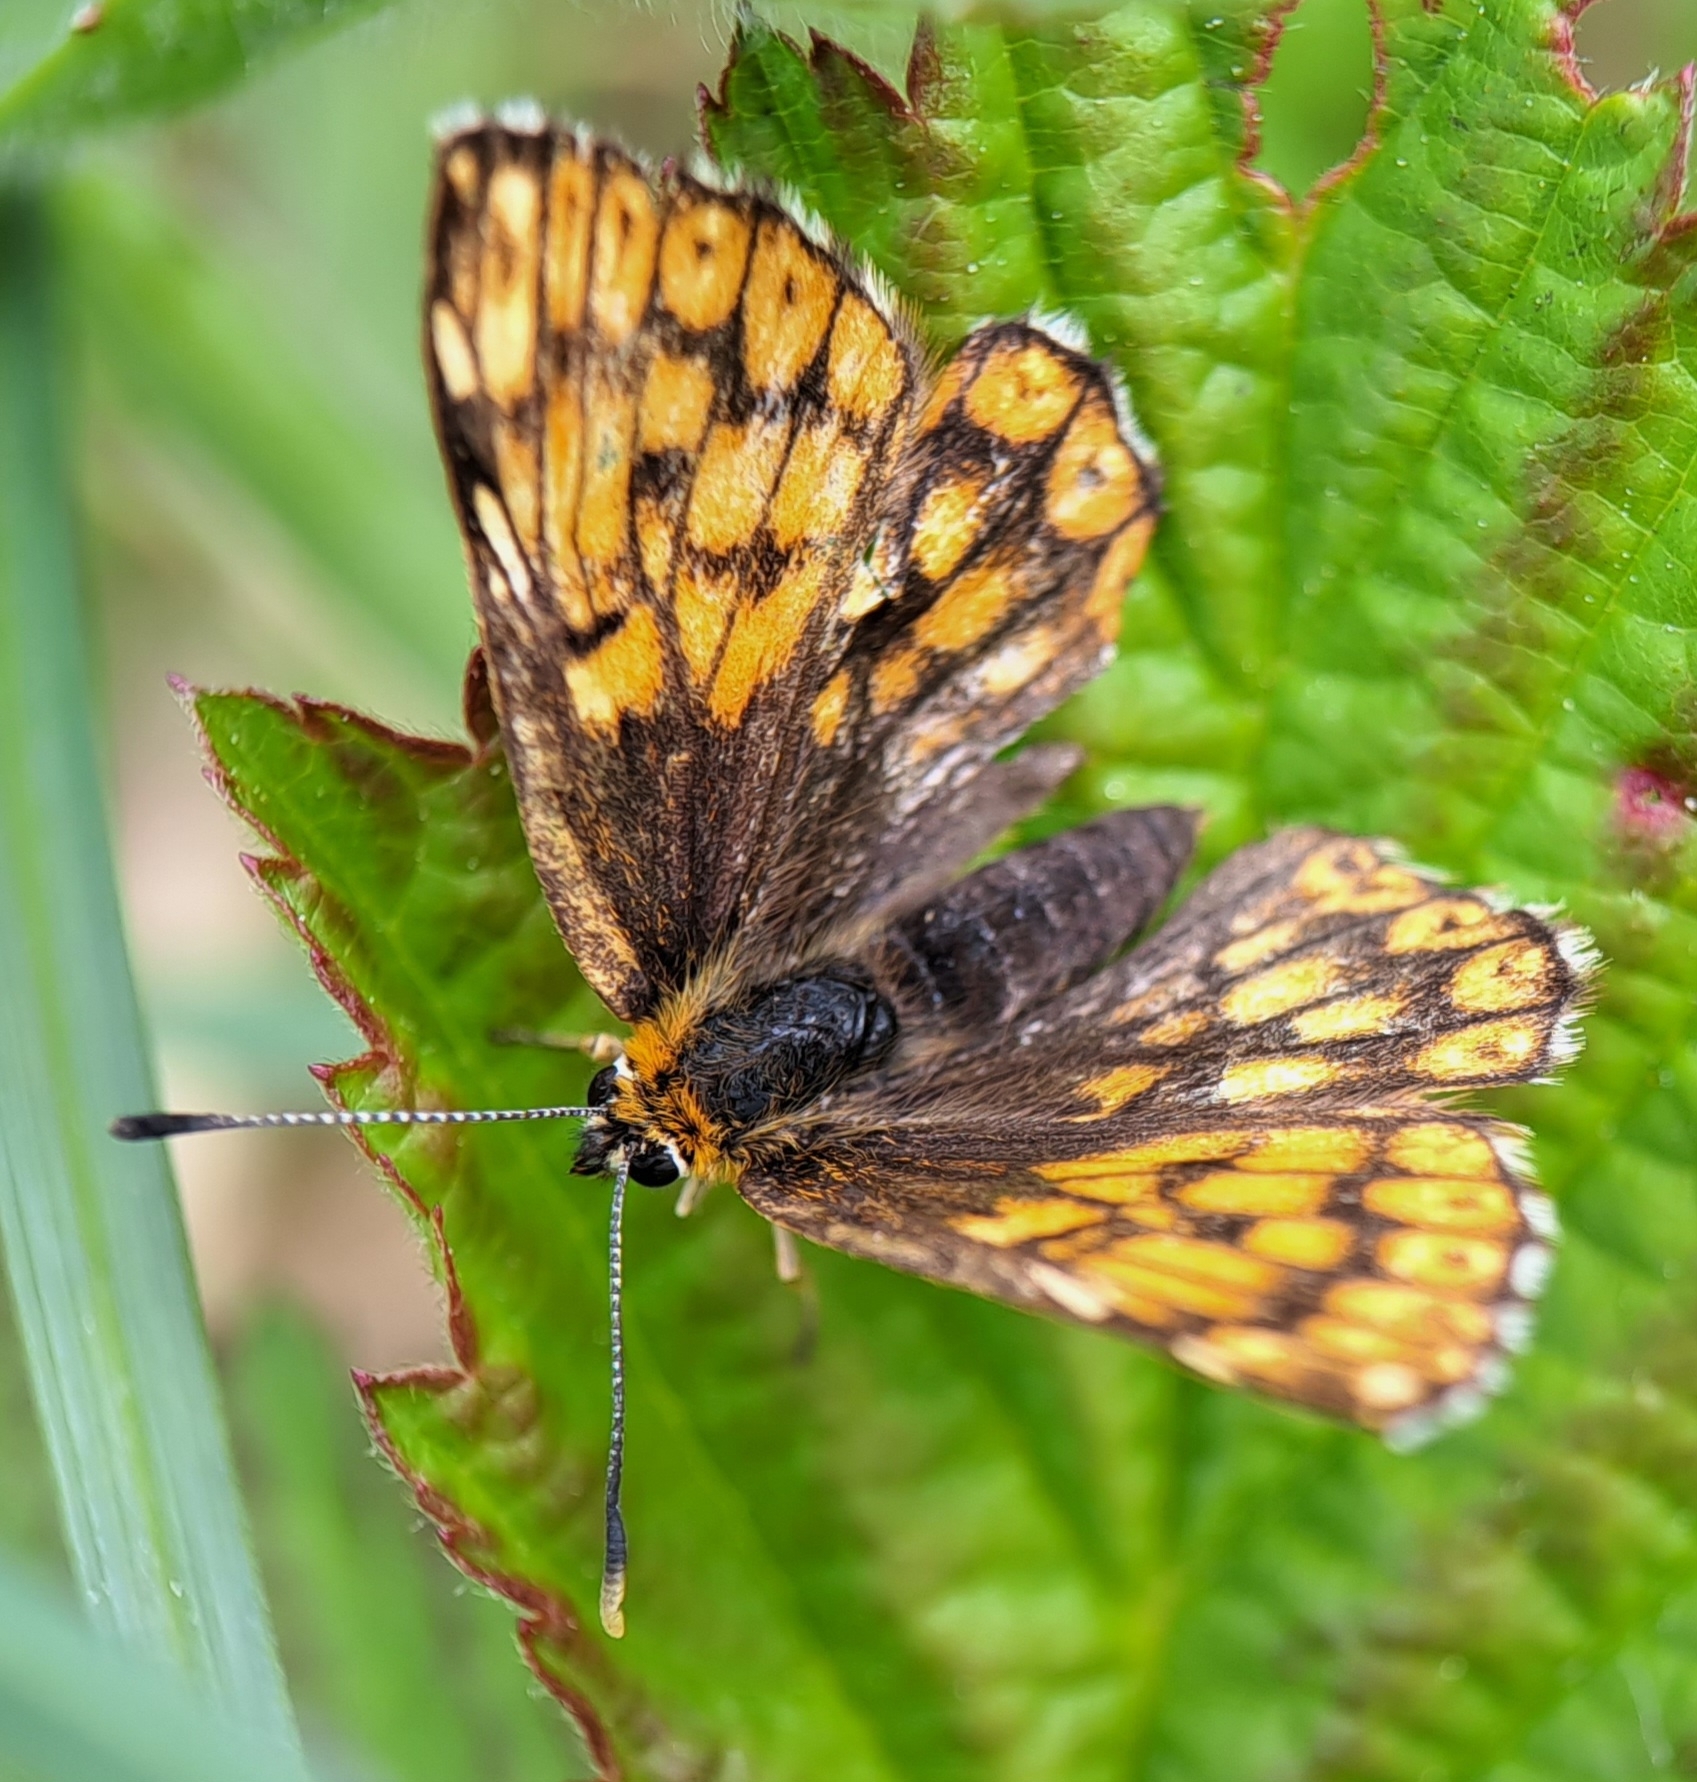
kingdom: Animalia
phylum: Arthropoda
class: Insecta
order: Lepidoptera
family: Riodinidae
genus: Hamearis
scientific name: Hamearis lucina
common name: Duke of burgundy fritillary
